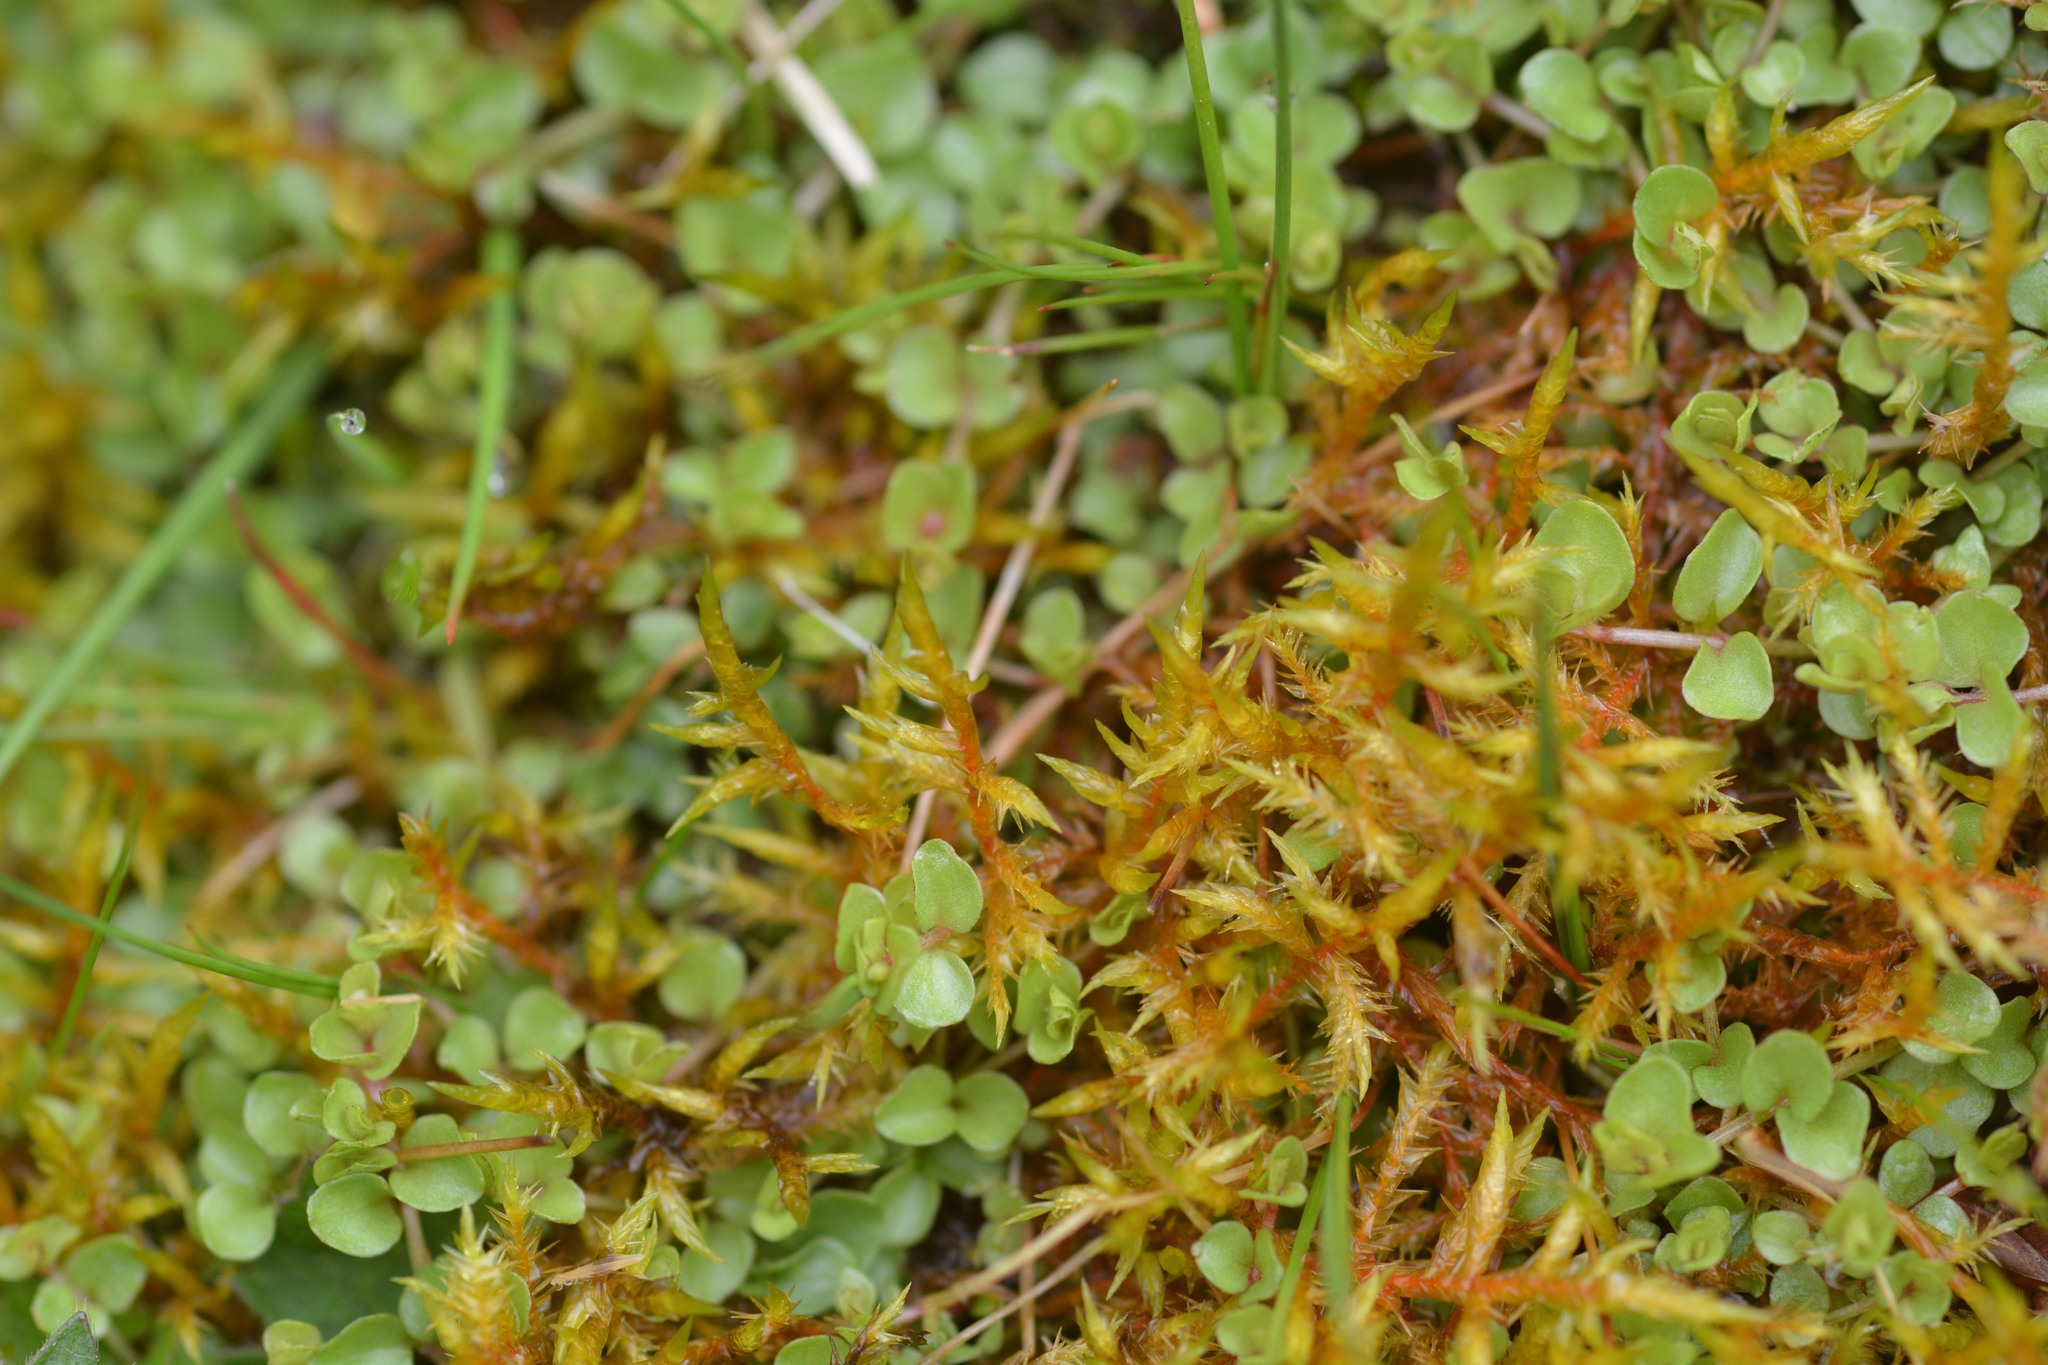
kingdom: Plantae
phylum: Bryophyta
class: Bryopsida
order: Hypnales
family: Pylaisiaceae
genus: Calliergonella
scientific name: Calliergonella cuspidata
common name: Common large wetland moss
